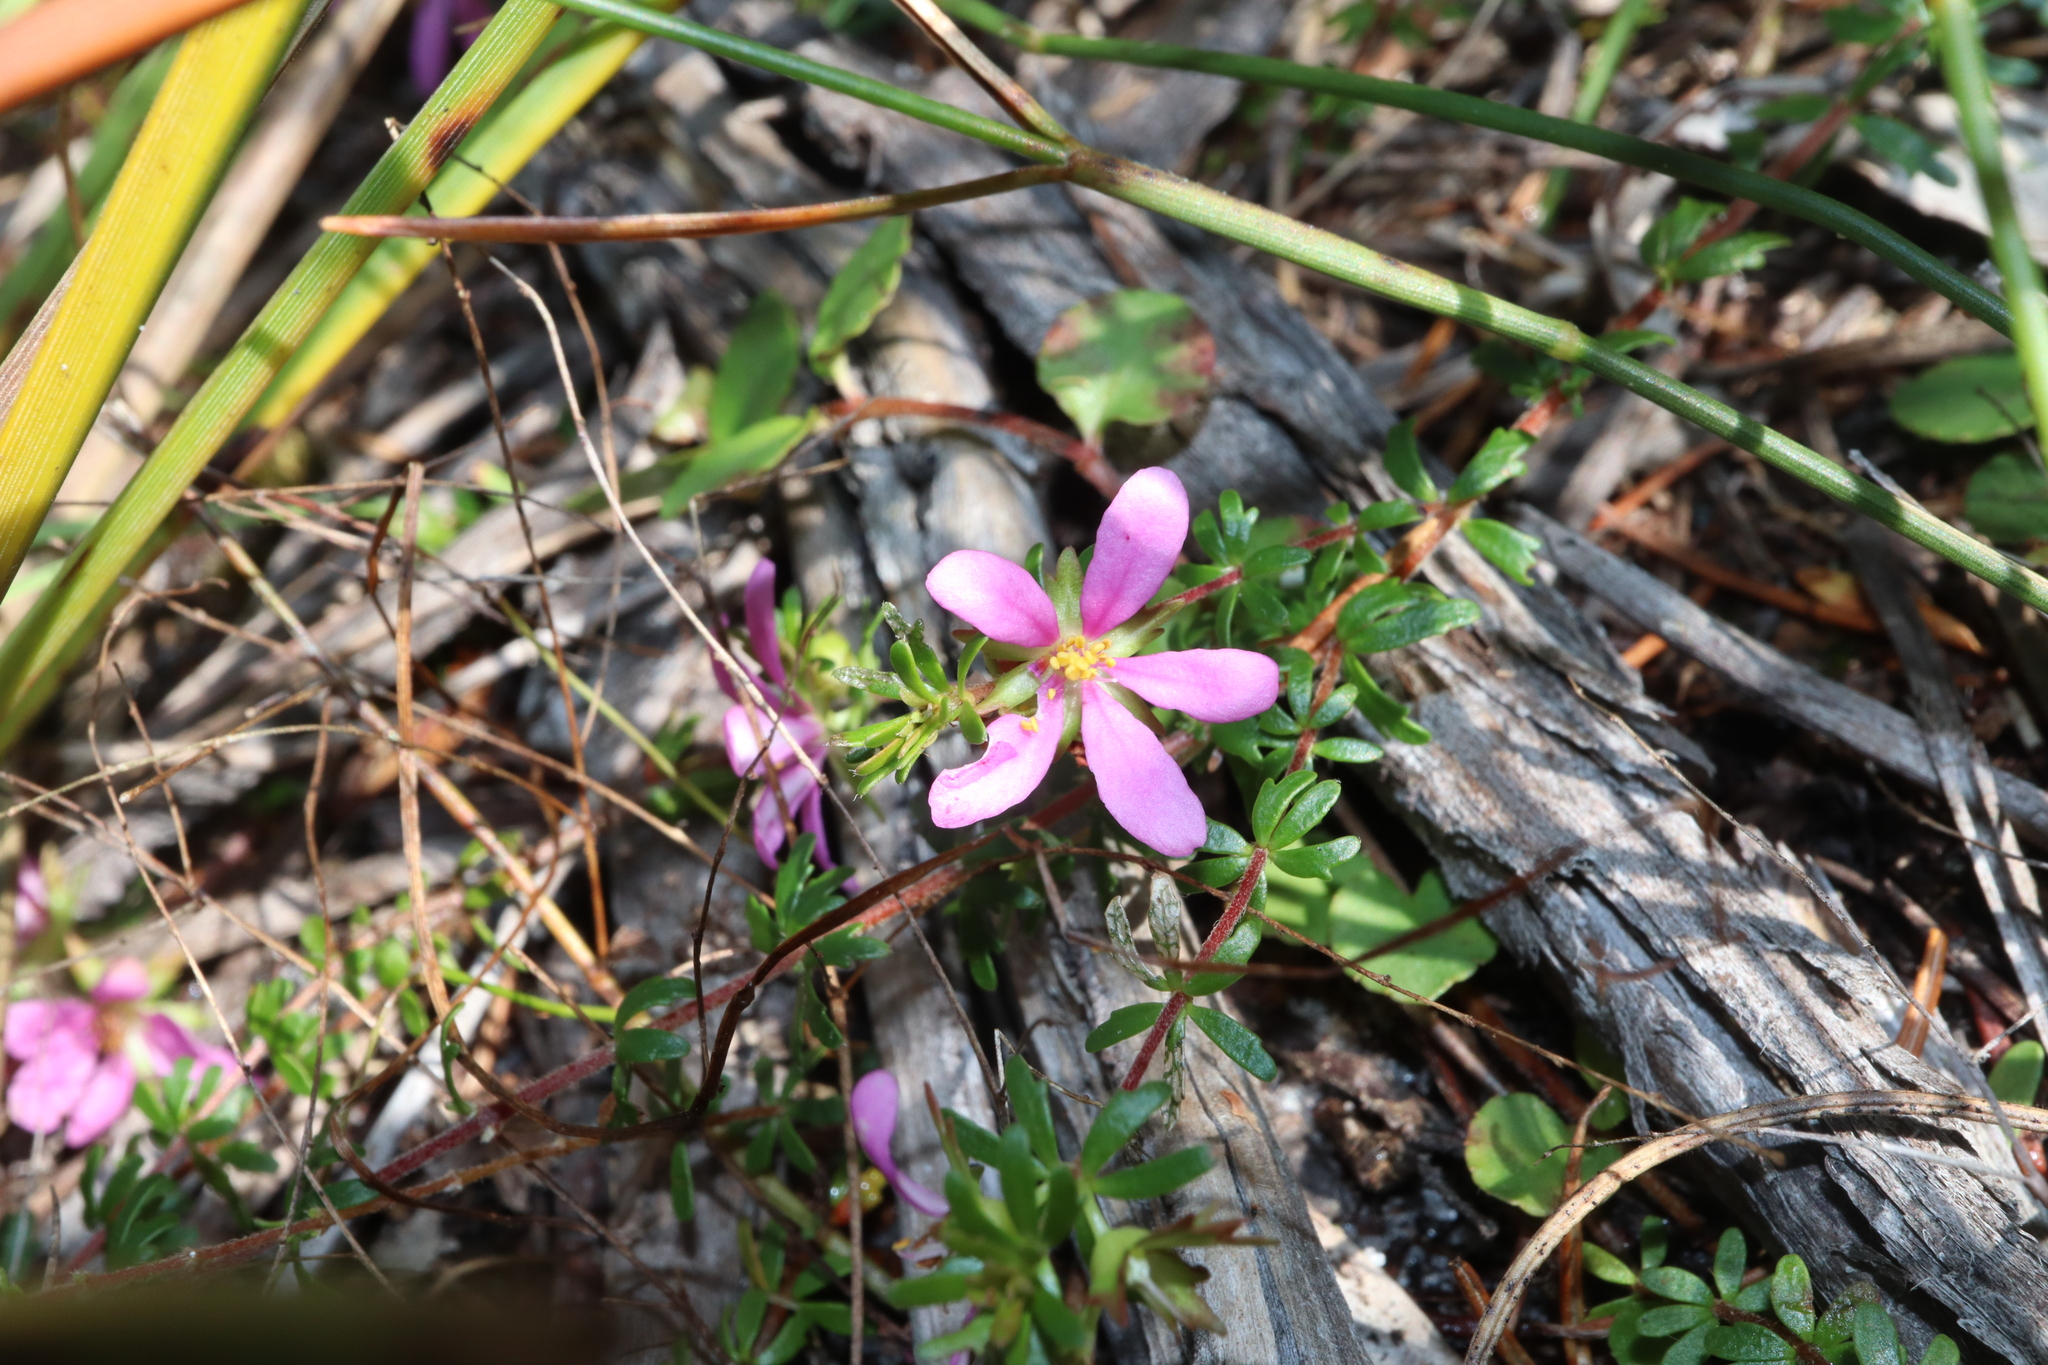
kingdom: Plantae
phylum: Tracheophyta
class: Magnoliopsida
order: Oxalidales
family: Cunoniaceae
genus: Bauera
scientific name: Bauera capitata
